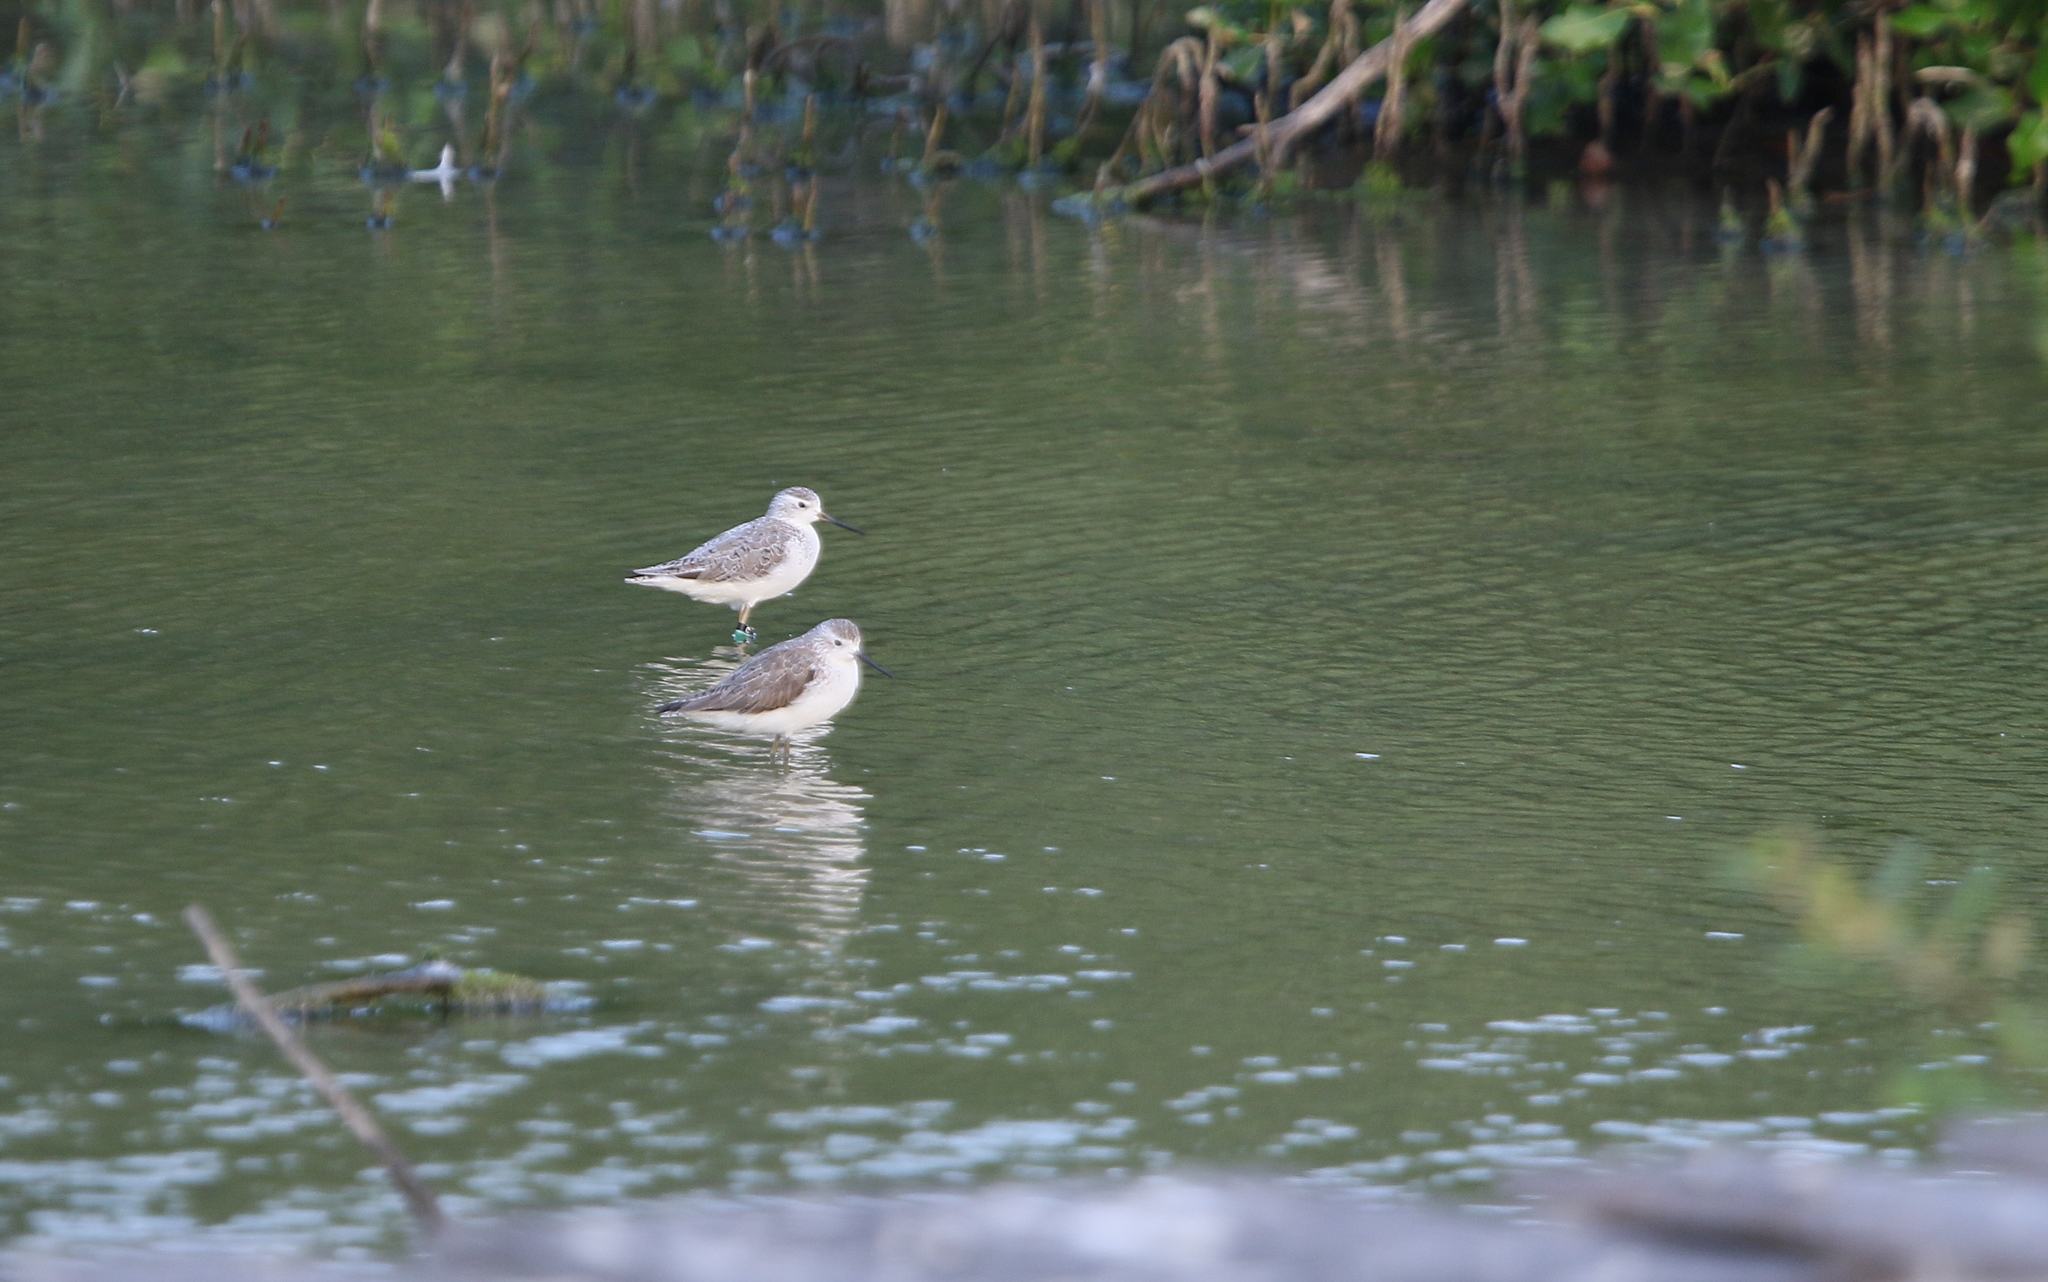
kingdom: Animalia
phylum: Chordata
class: Aves
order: Charadriiformes
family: Scolopacidae
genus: Tringa
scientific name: Tringa stagnatilis
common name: Marsh sandpiper
